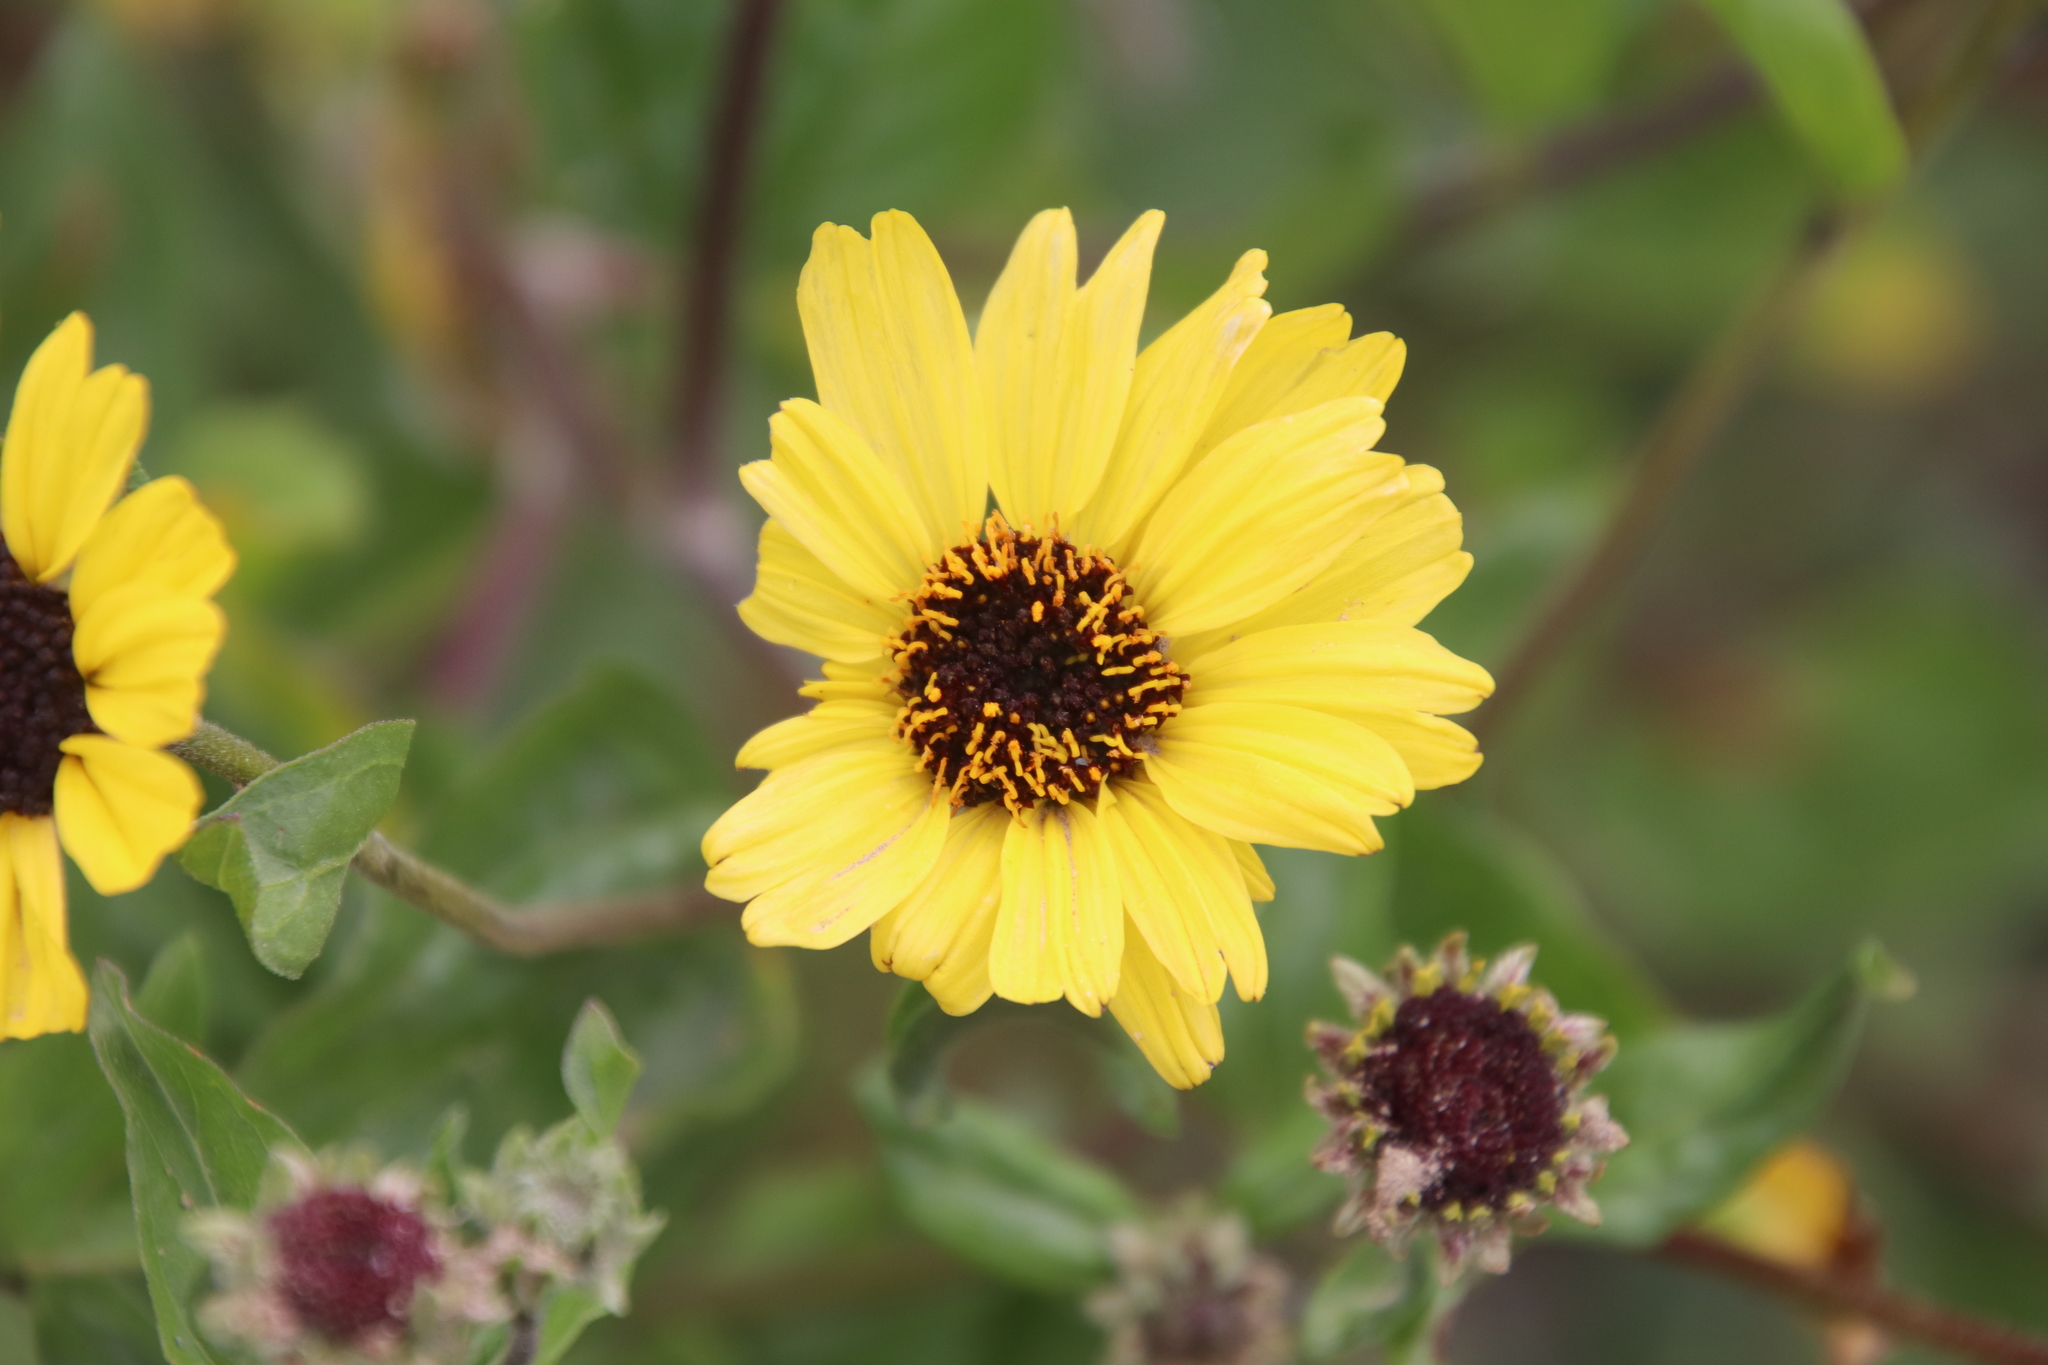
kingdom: Plantae
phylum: Tracheophyta
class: Magnoliopsida
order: Asterales
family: Asteraceae
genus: Encelia
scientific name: Encelia californica
